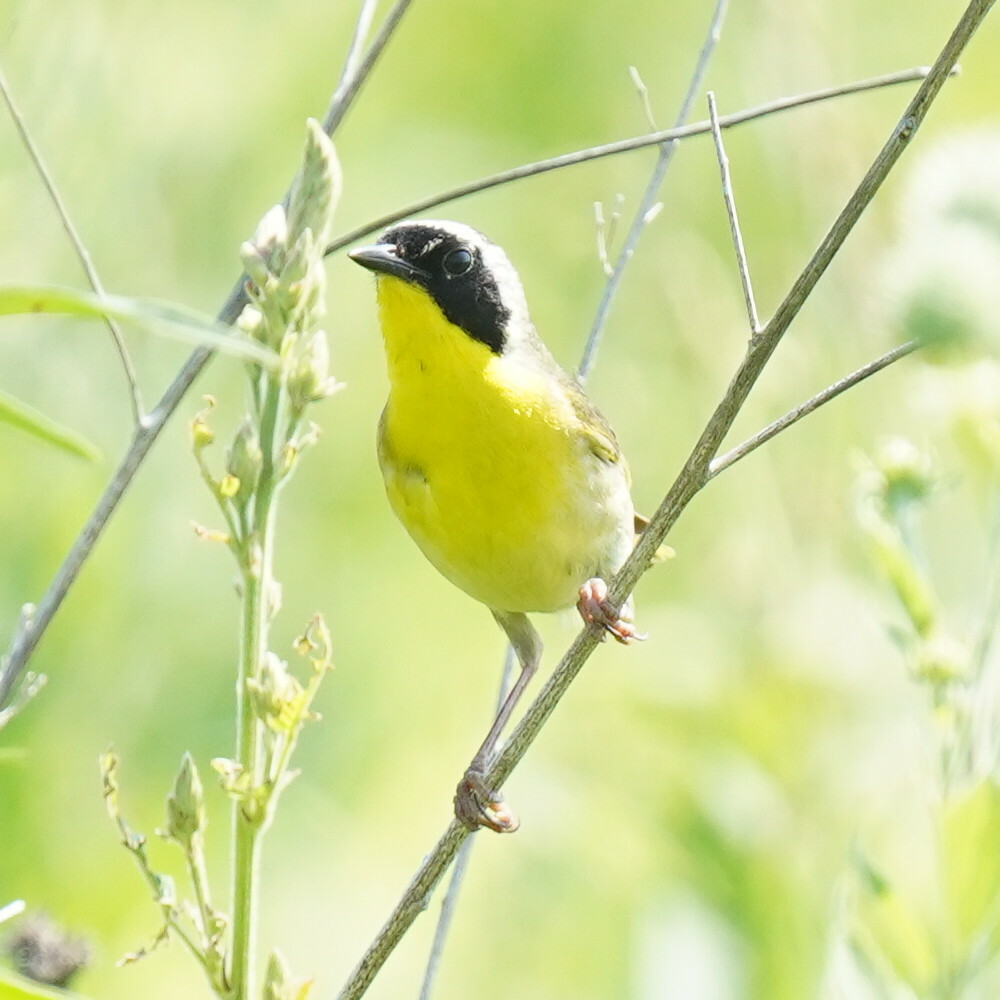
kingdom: Animalia
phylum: Chordata
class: Aves
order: Passeriformes
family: Parulidae
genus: Geothlypis
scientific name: Geothlypis trichas
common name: Common yellowthroat
